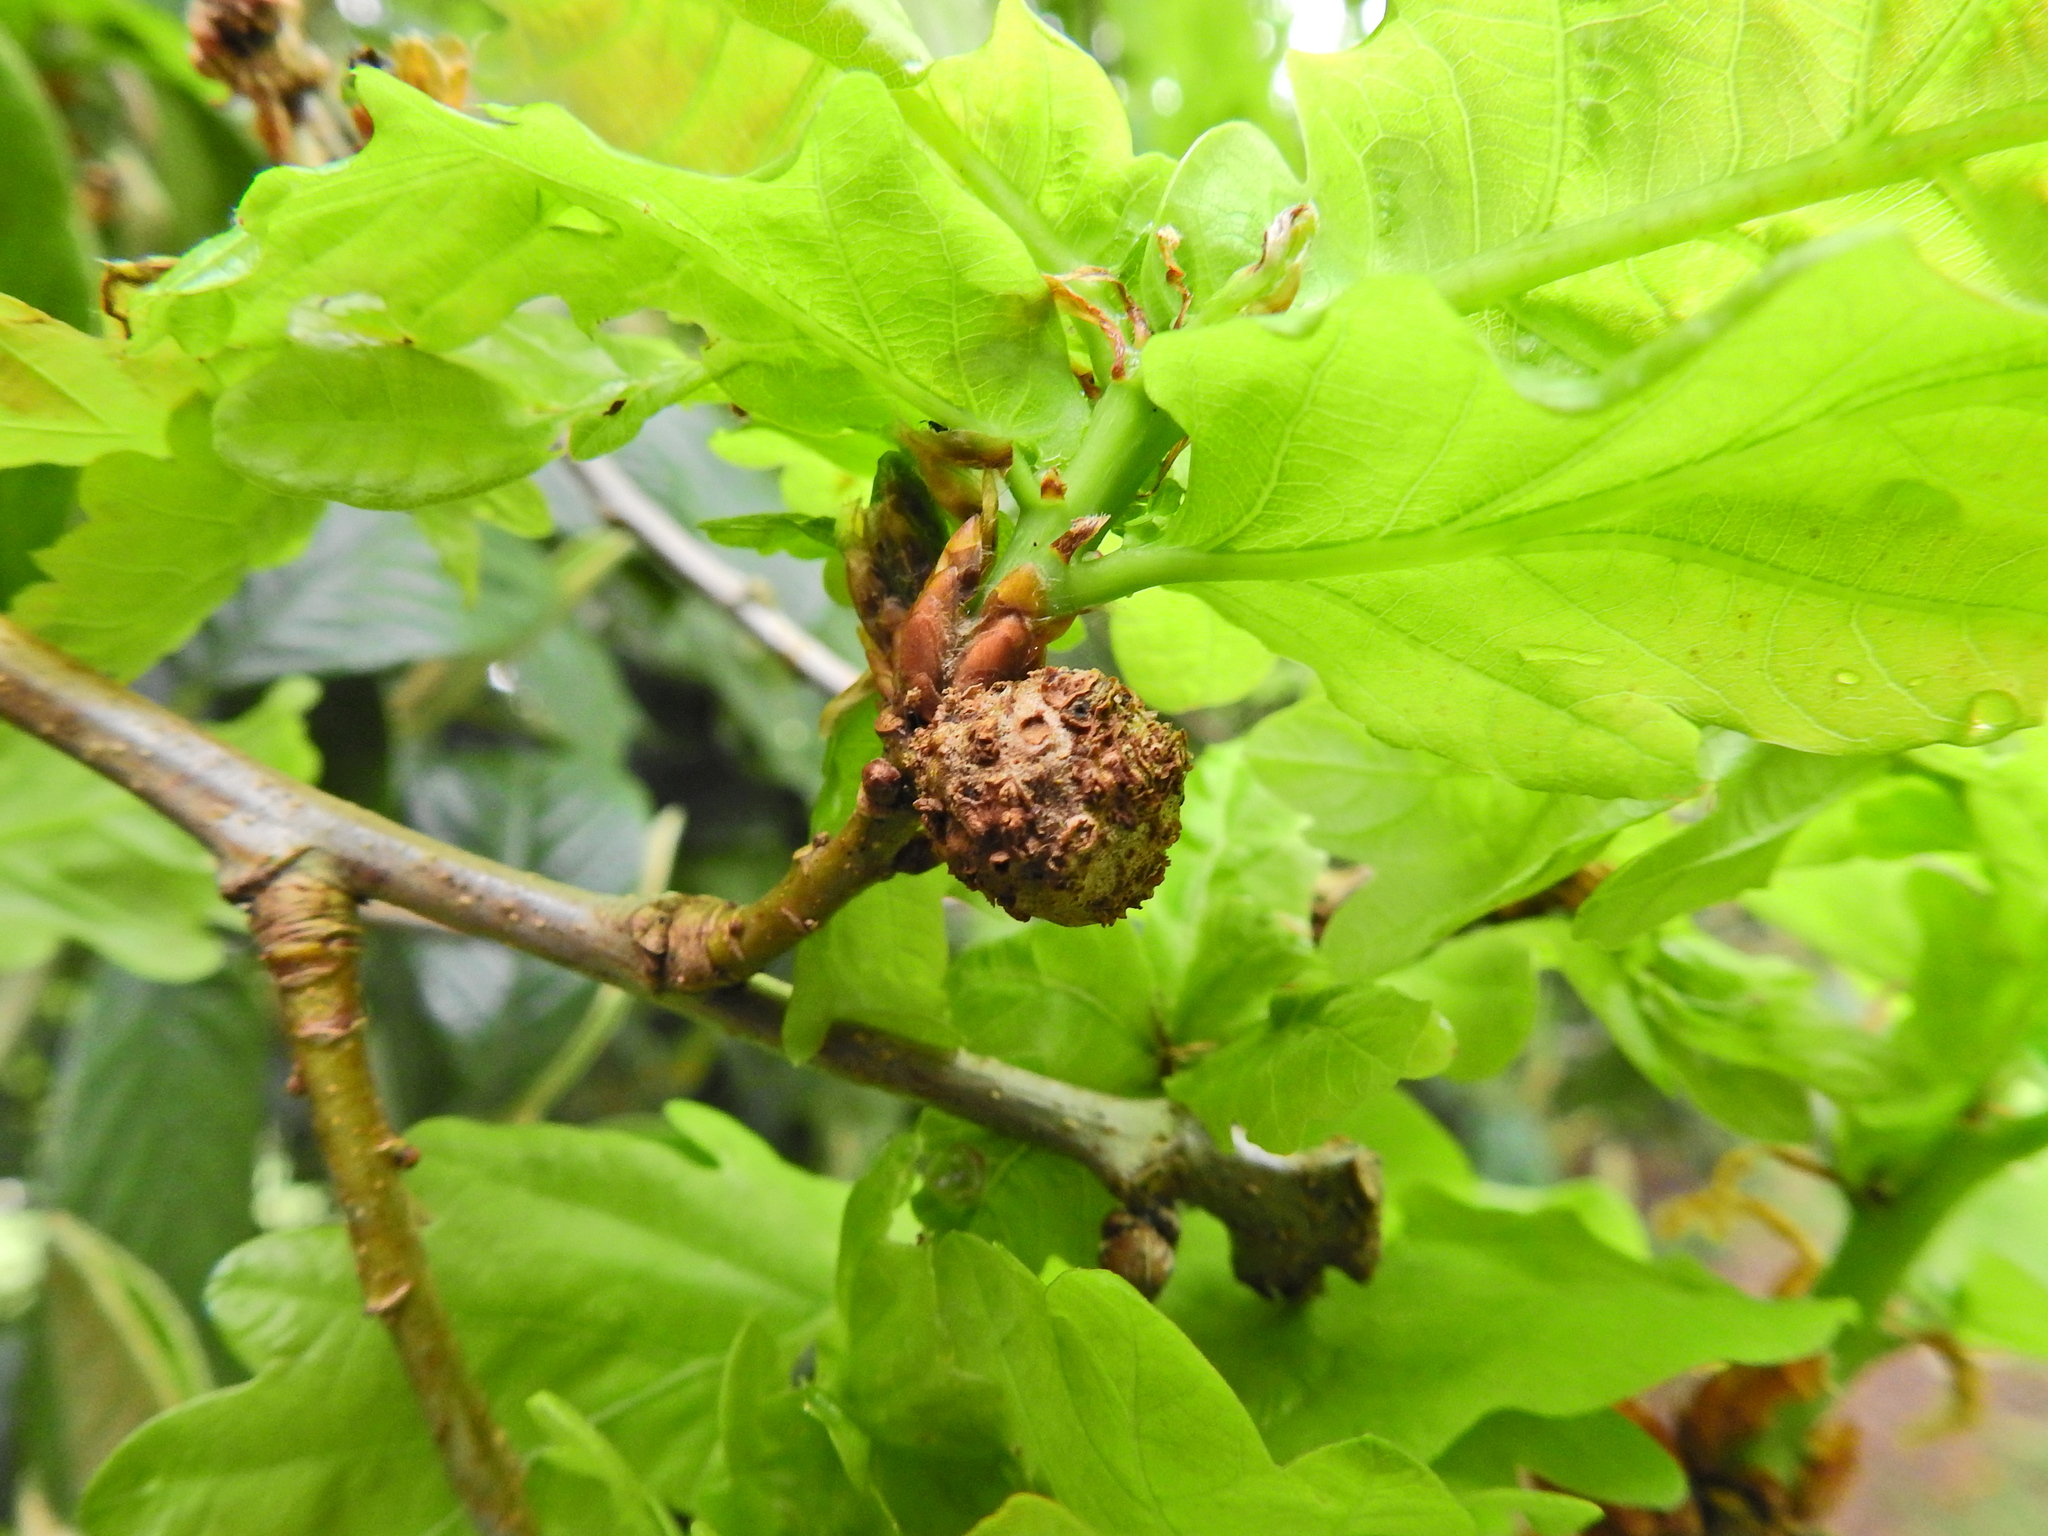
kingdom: Animalia
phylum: Arthropoda
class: Insecta
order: Hymenoptera
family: Cynipidae
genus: Andricus
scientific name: Andricus lignicolus
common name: Cola-nut gall
